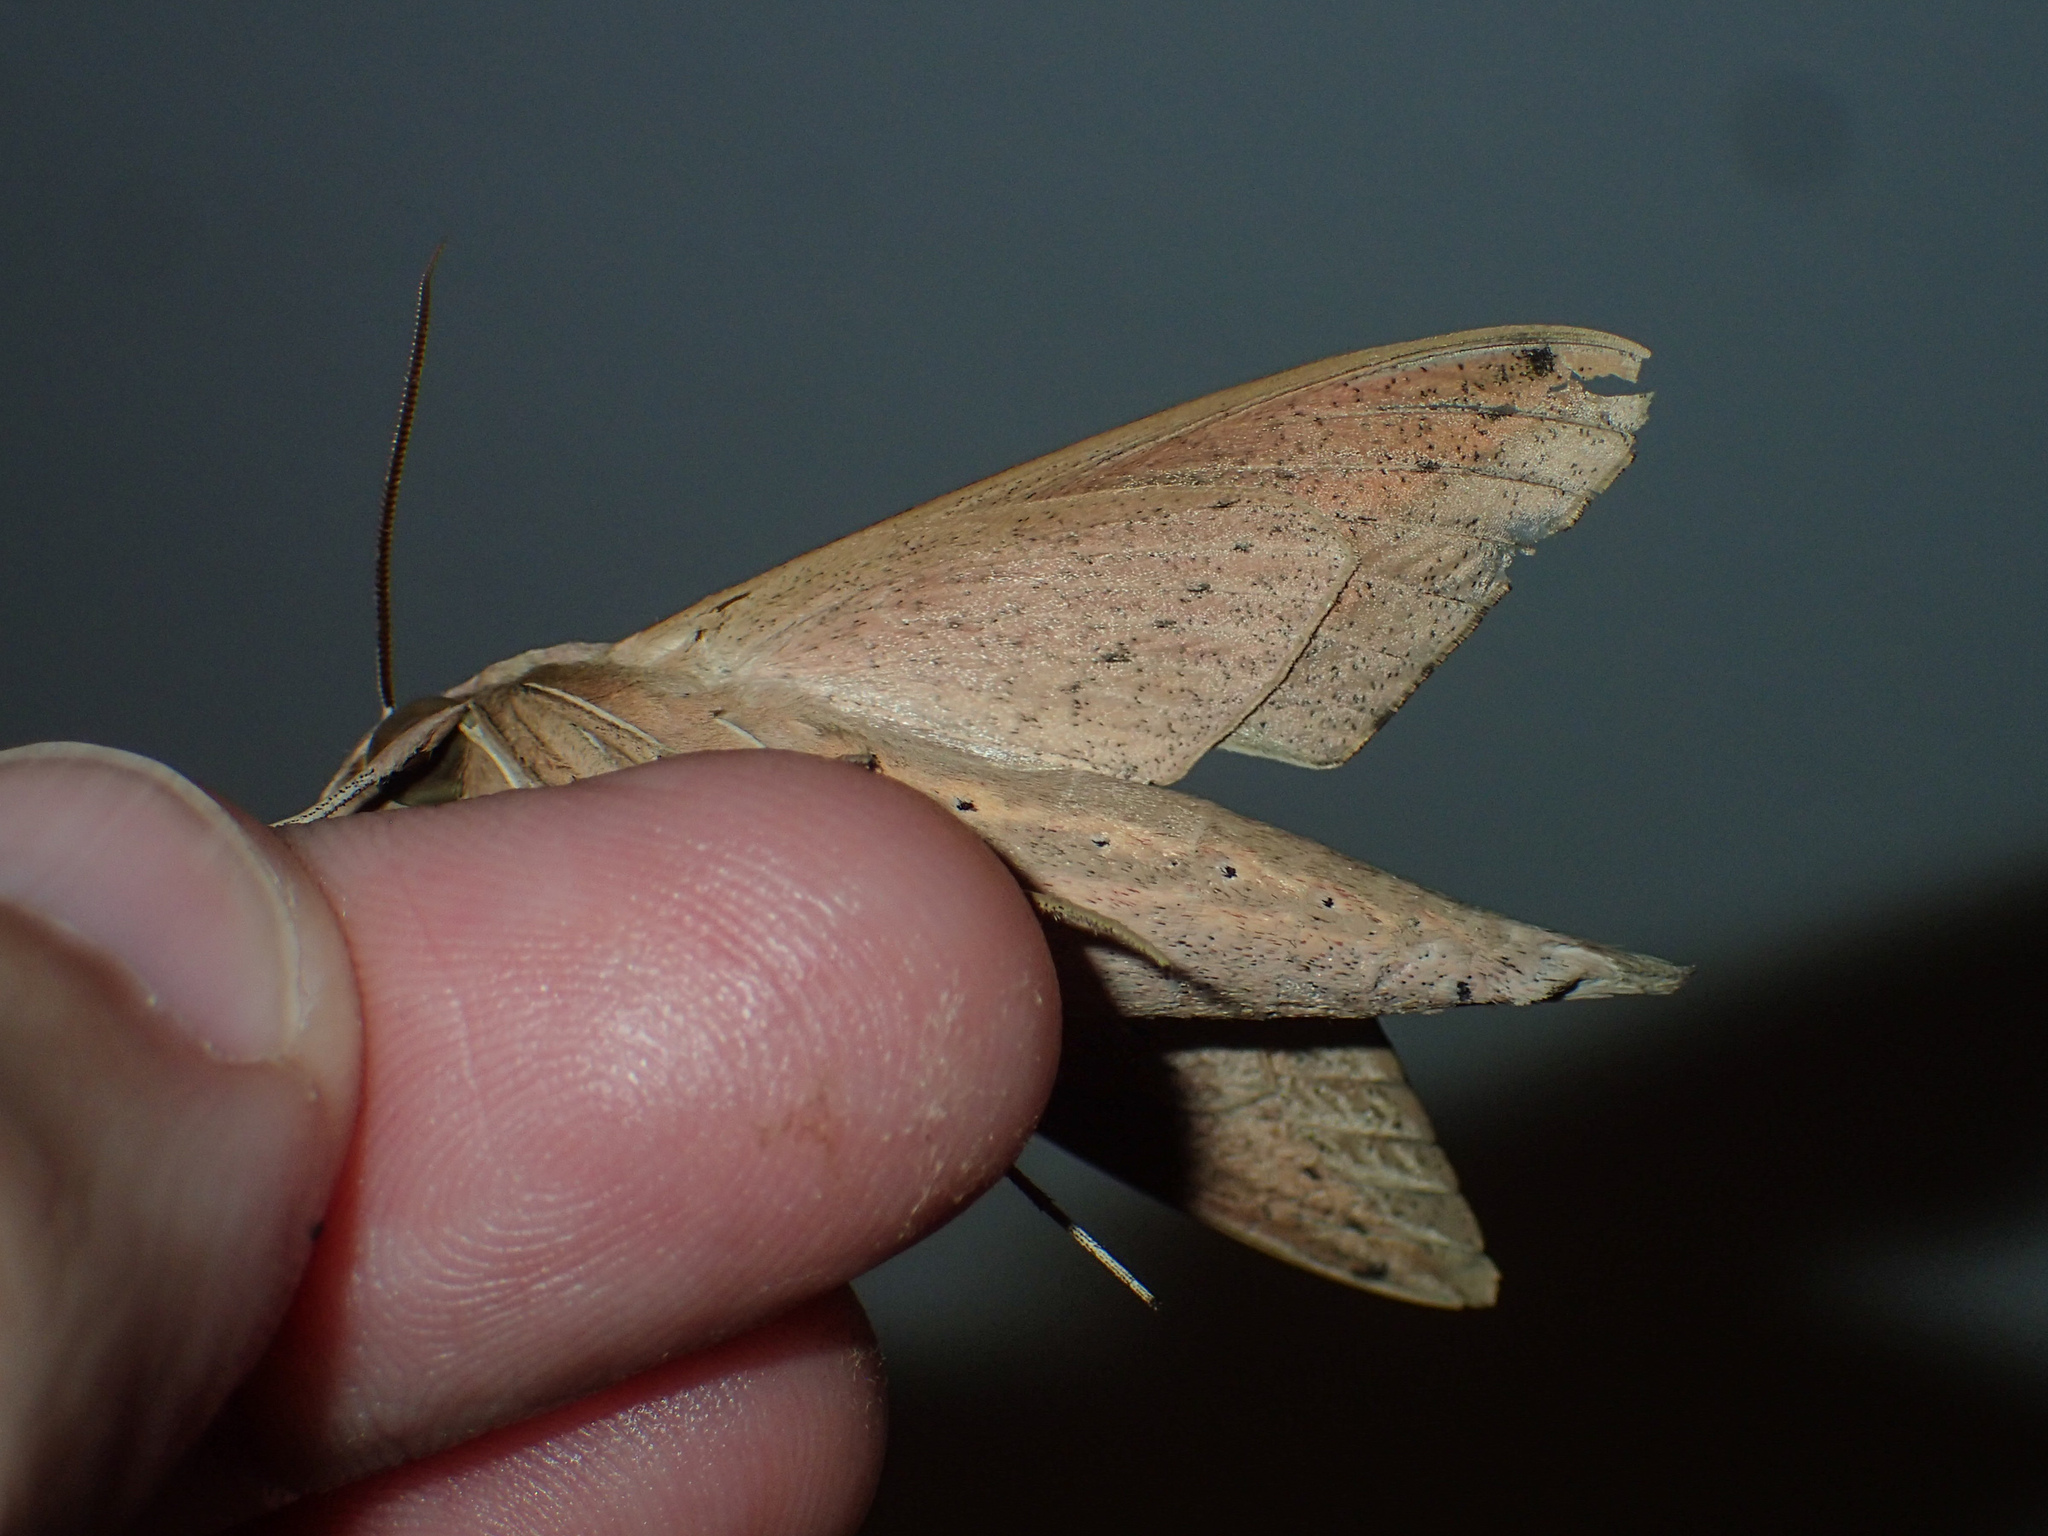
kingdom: Animalia
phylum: Arthropoda
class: Insecta
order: Lepidoptera
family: Sphingidae
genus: Theretra
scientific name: Theretra rhesus
